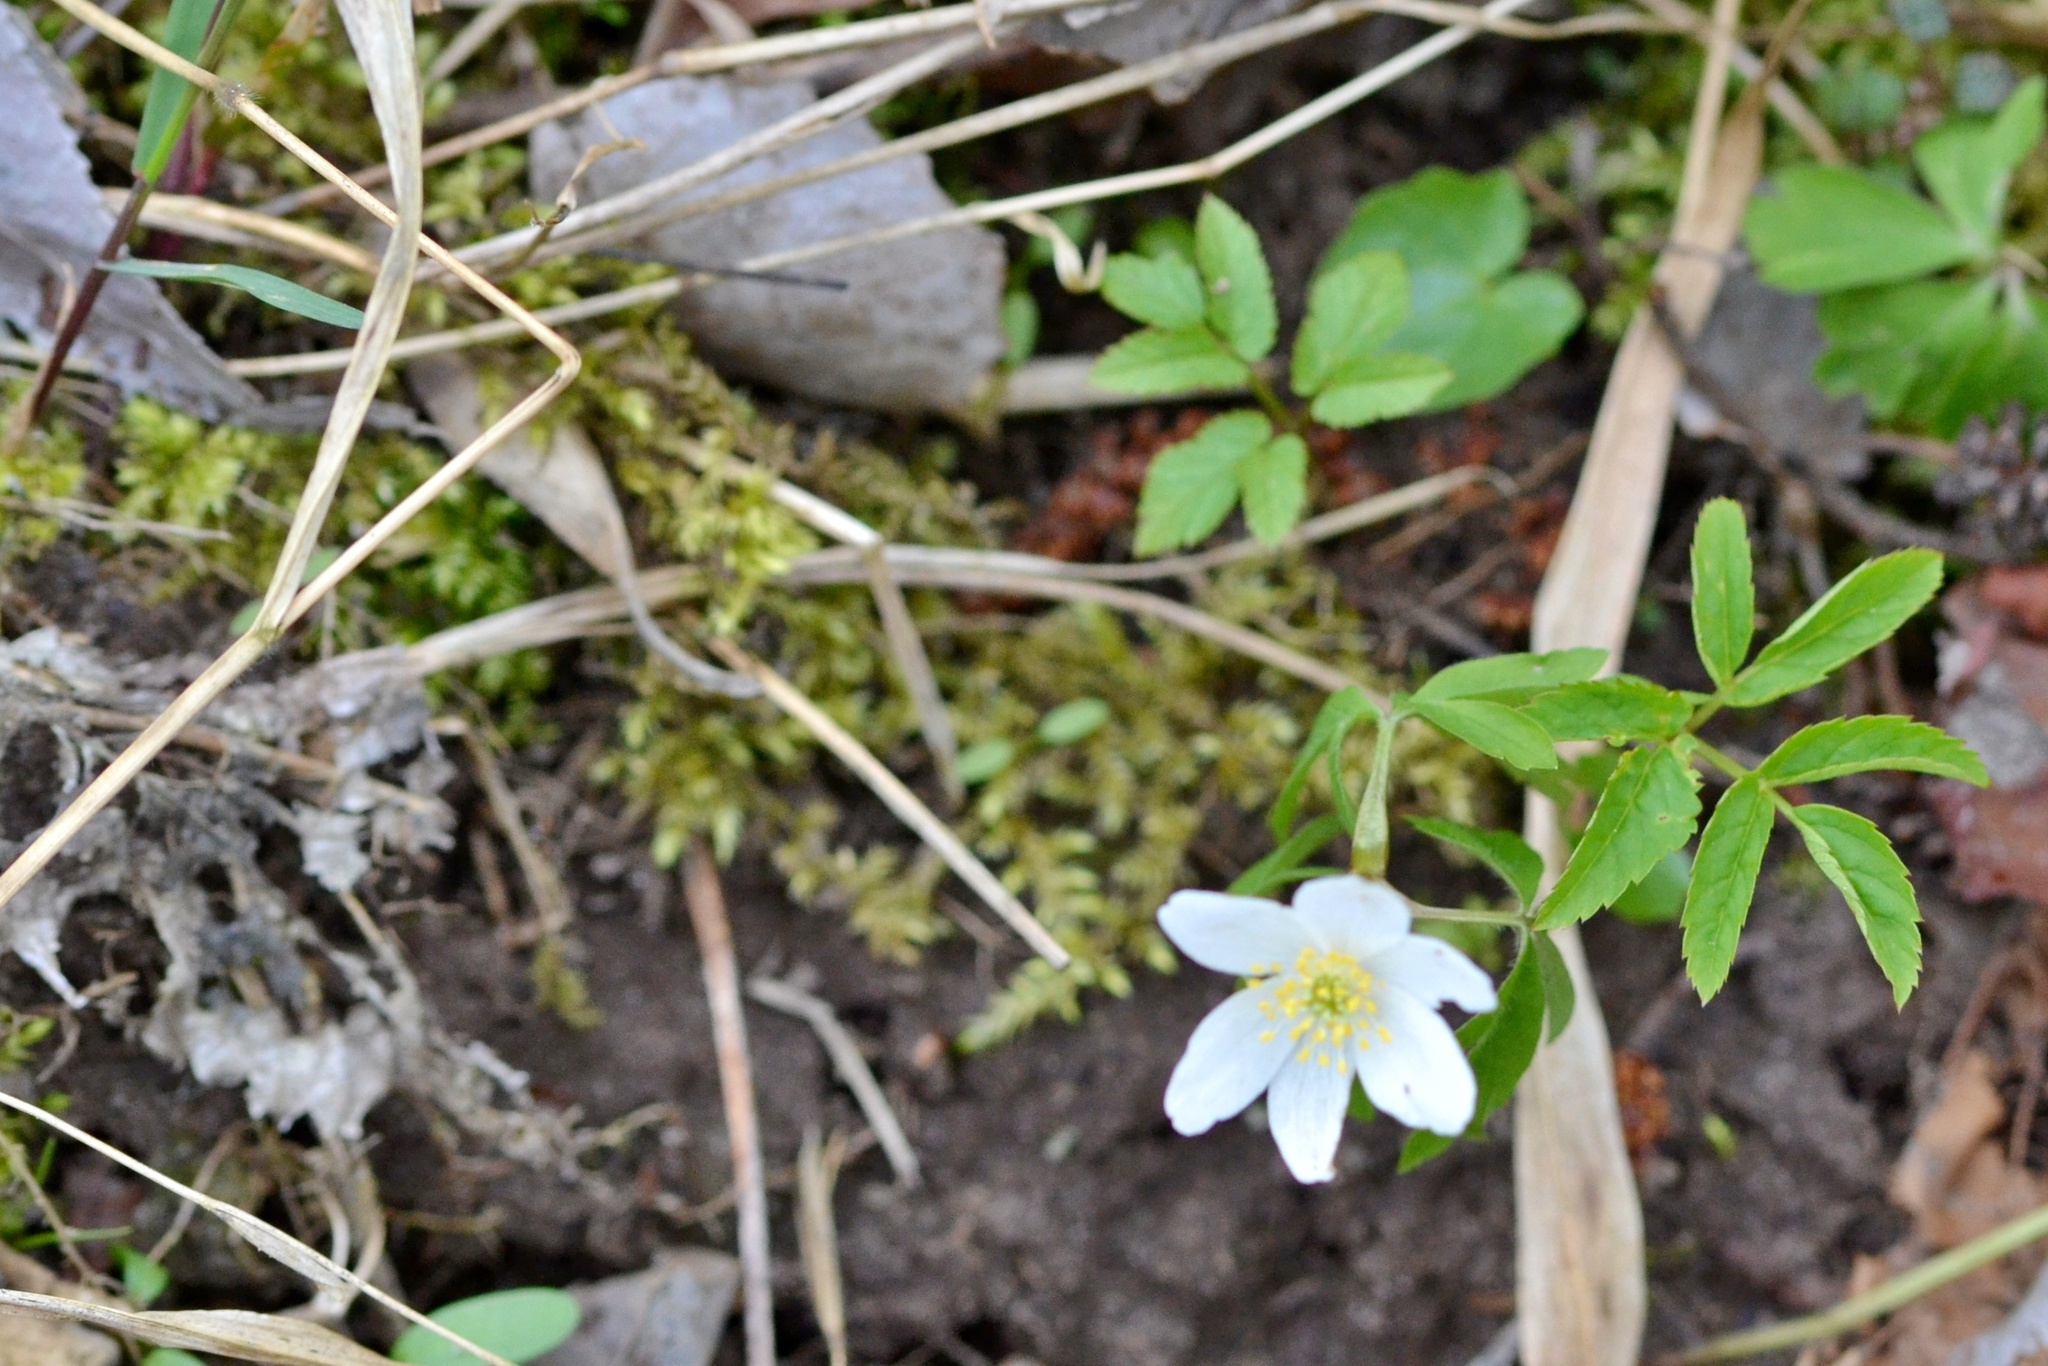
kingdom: Plantae
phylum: Tracheophyta
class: Magnoliopsida
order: Ranunculales
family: Ranunculaceae
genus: Anemone
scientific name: Anemone nemorosa
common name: Wood anemone
